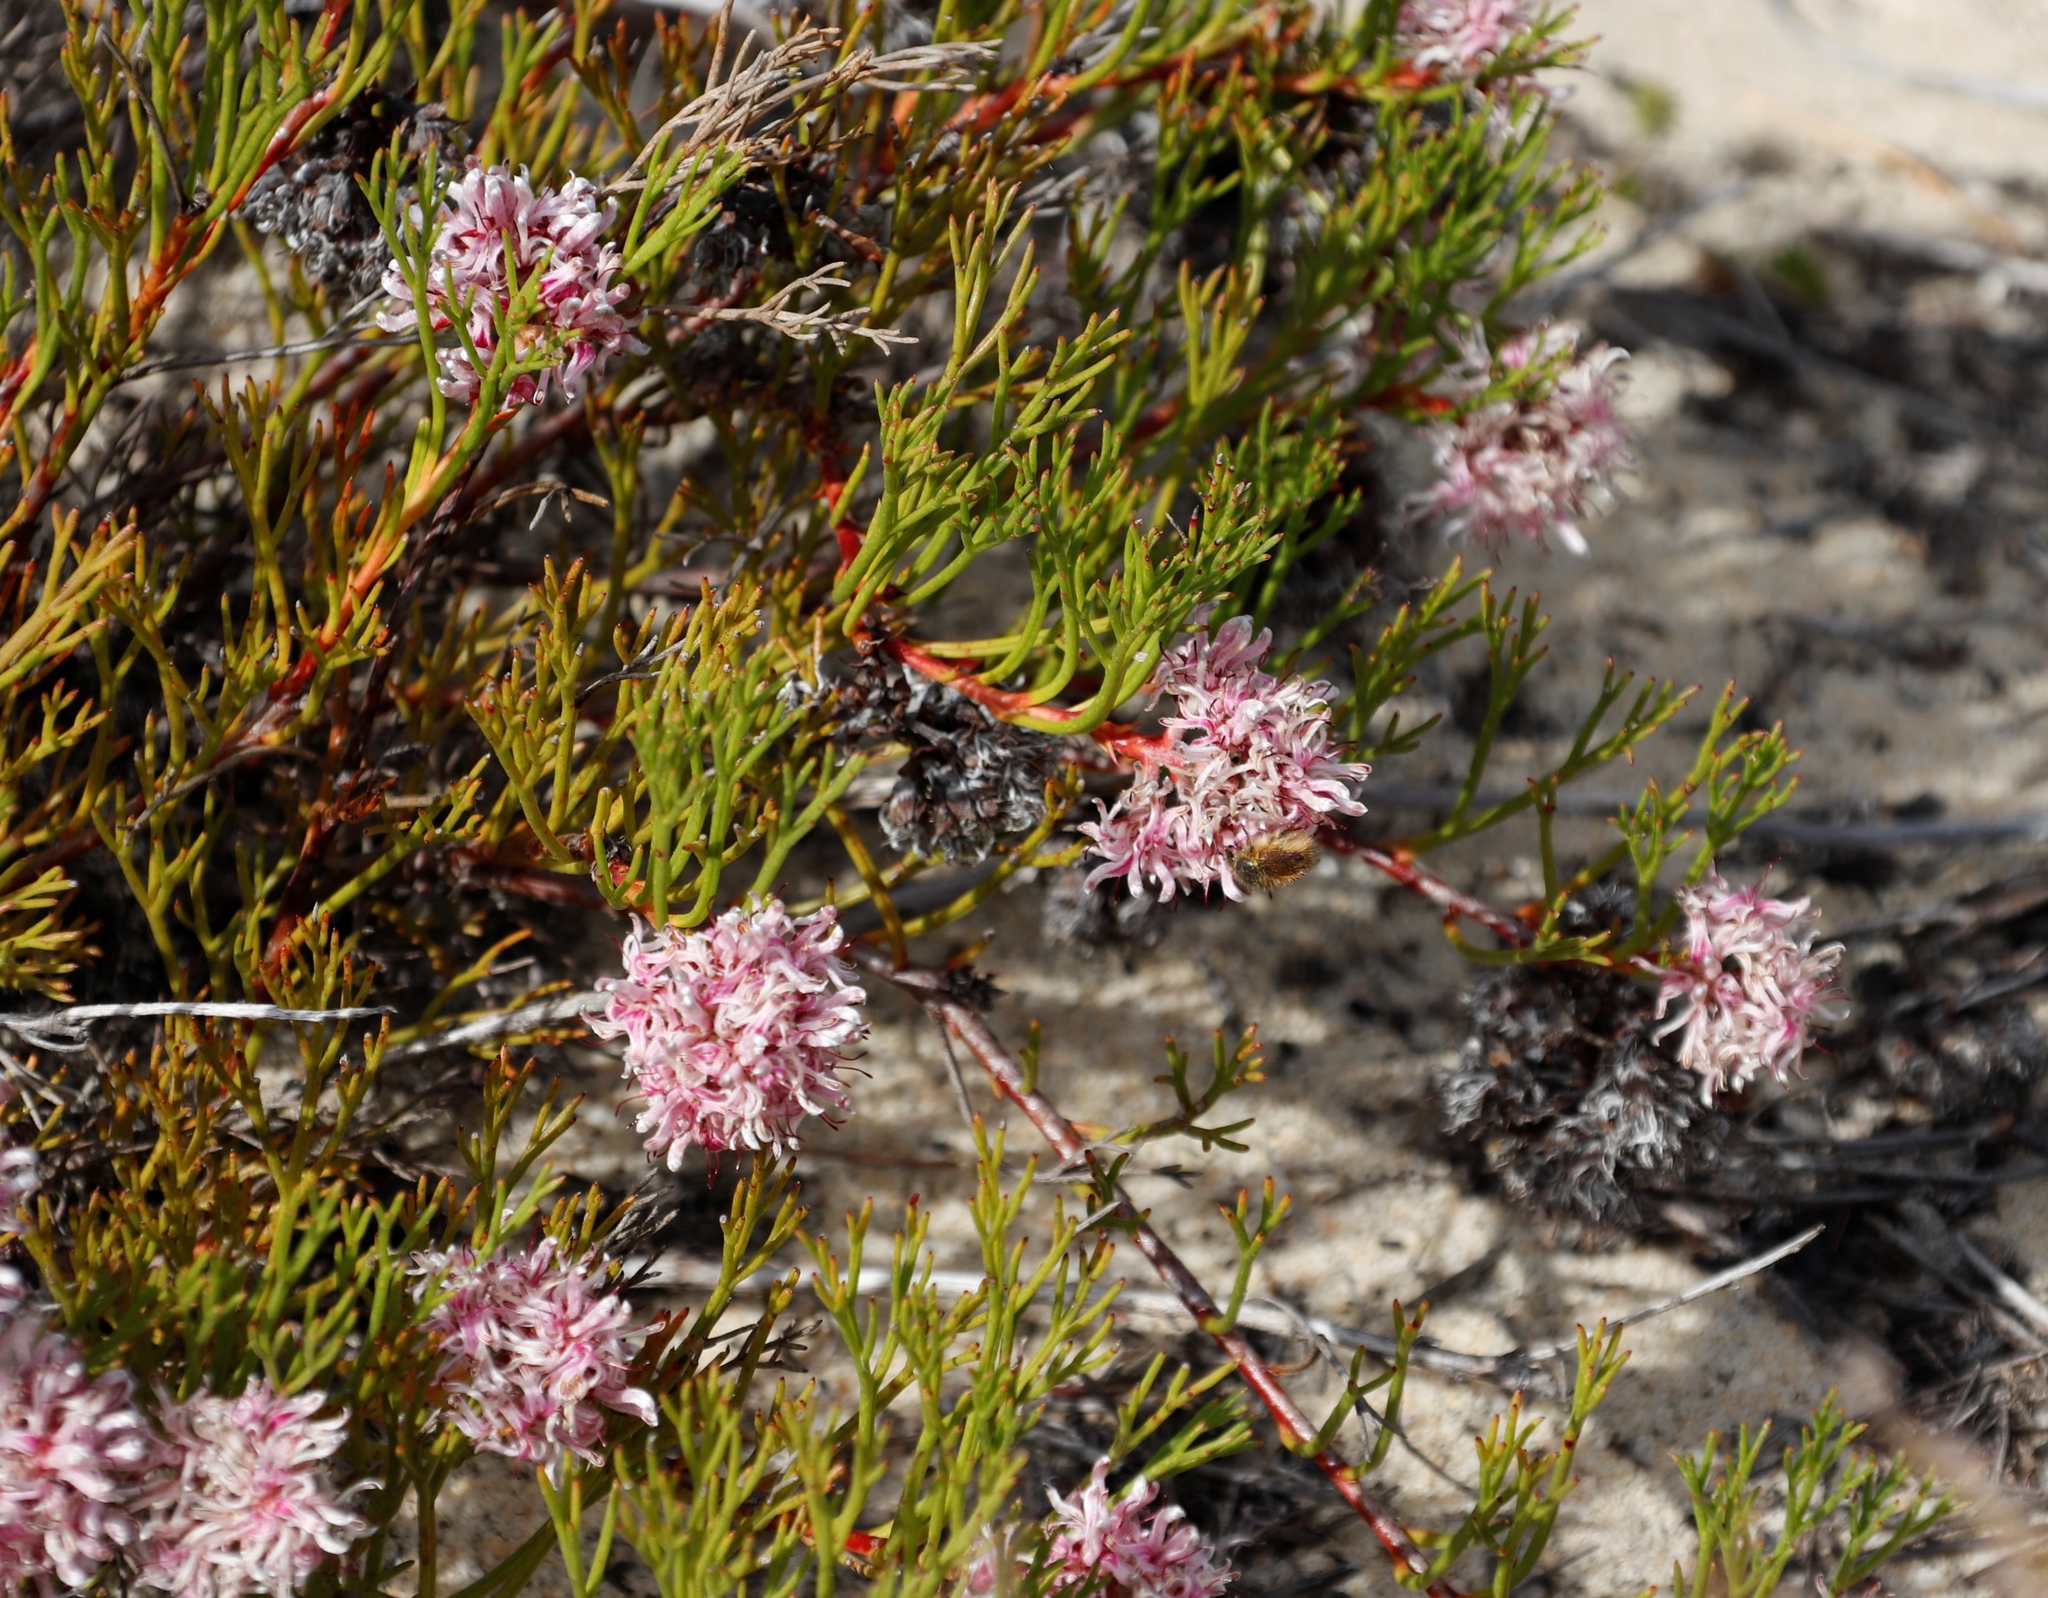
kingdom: Plantae
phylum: Tracheophyta
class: Magnoliopsida
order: Proteales
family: Proteaceae
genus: Serruria
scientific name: Serruria rubricaulis
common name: Red-stem spiderhead
